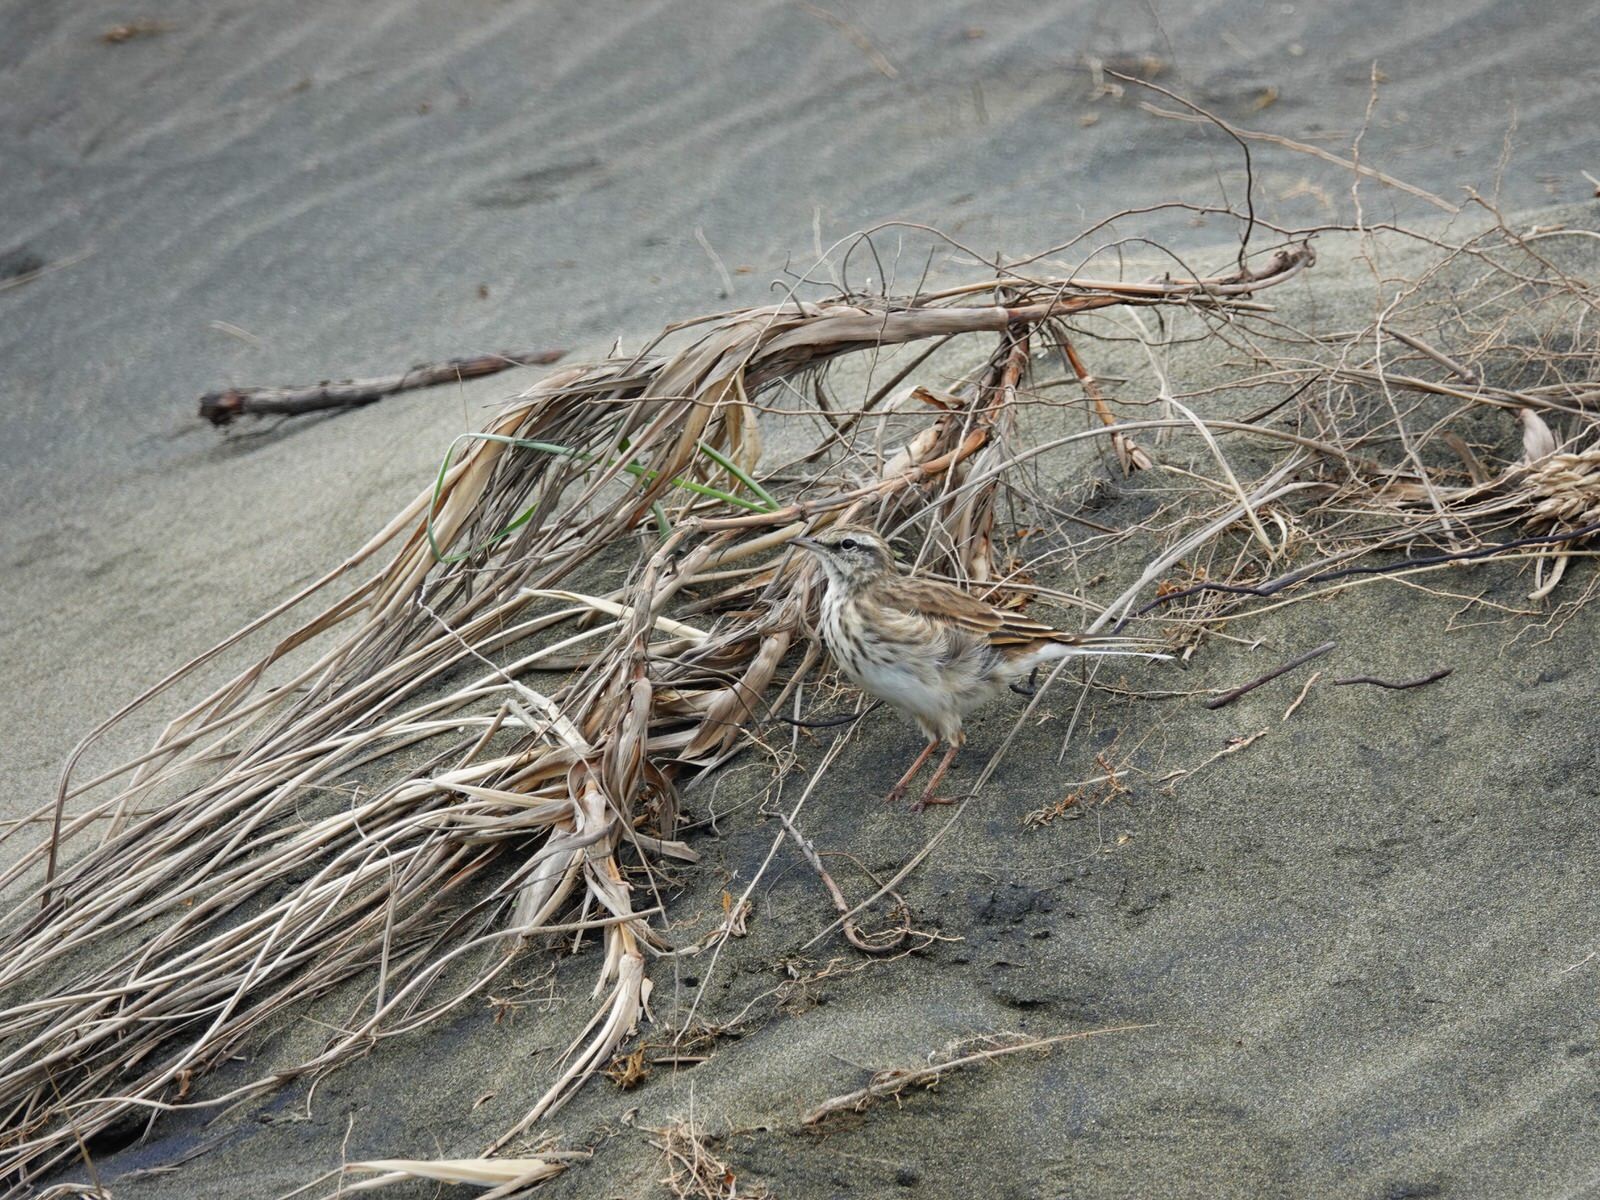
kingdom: Animalia
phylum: Chordata
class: Aves
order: Passeriformes
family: Motacillidae
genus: Anthus
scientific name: Anthus novaeseelandiae
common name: New zealand pipit
